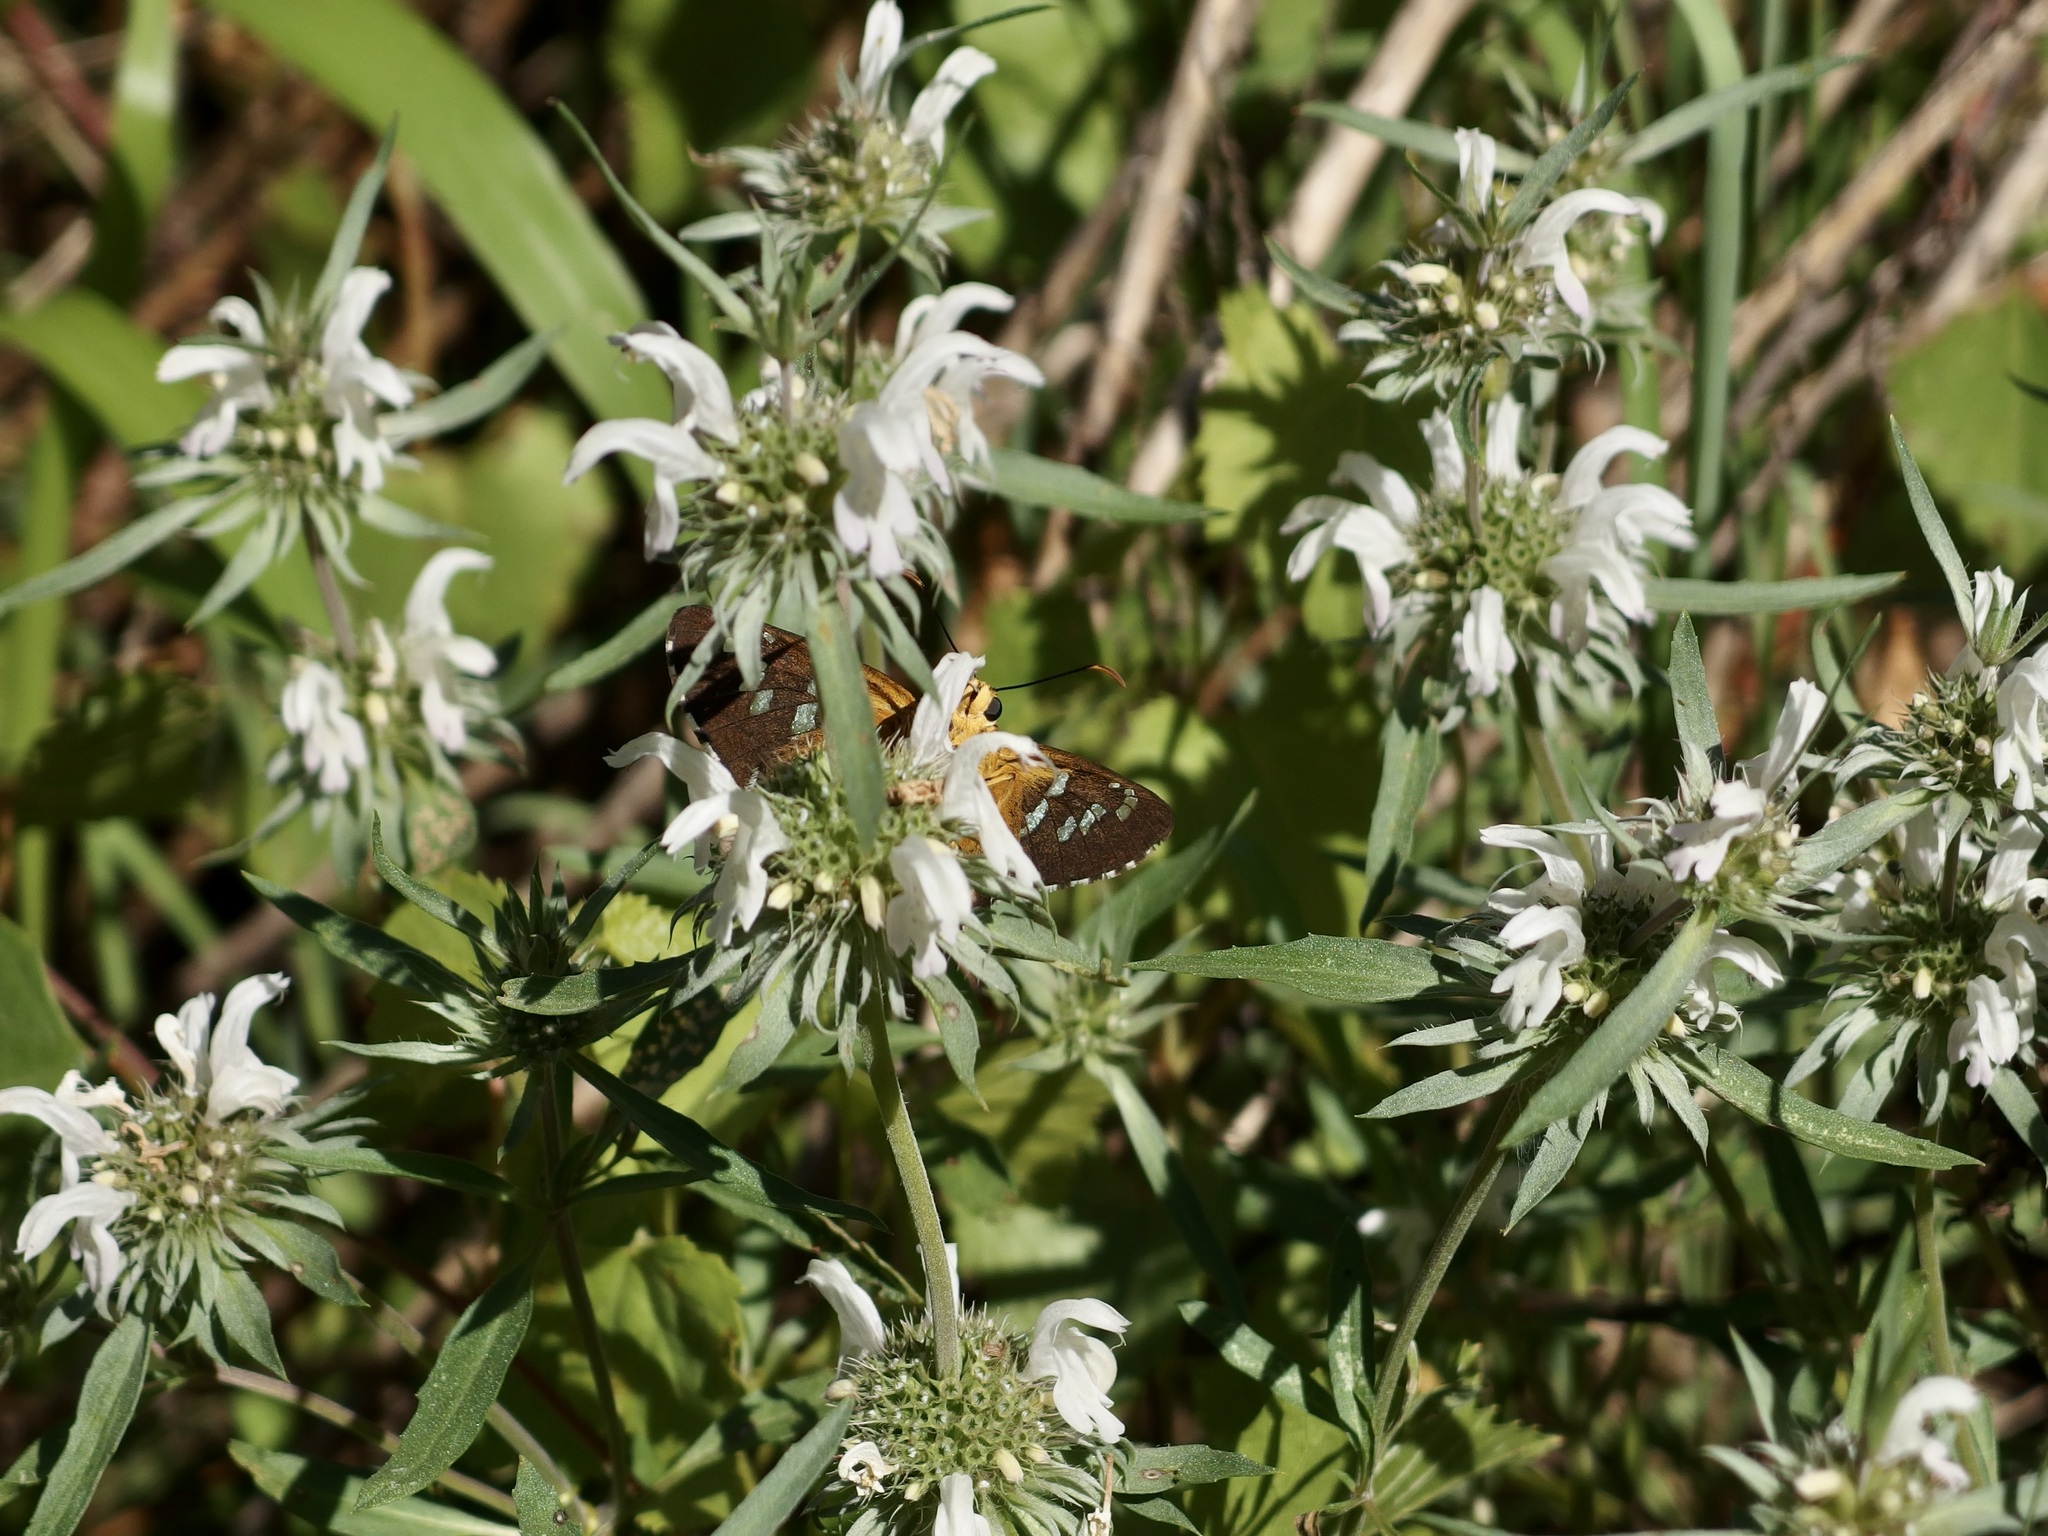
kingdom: Plantae
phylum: Tracheophyta
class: Magnoliopsida
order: Lamiales
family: Lamiaceae
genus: Monarda
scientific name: Monarda citriodora
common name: Lemon beebalm
